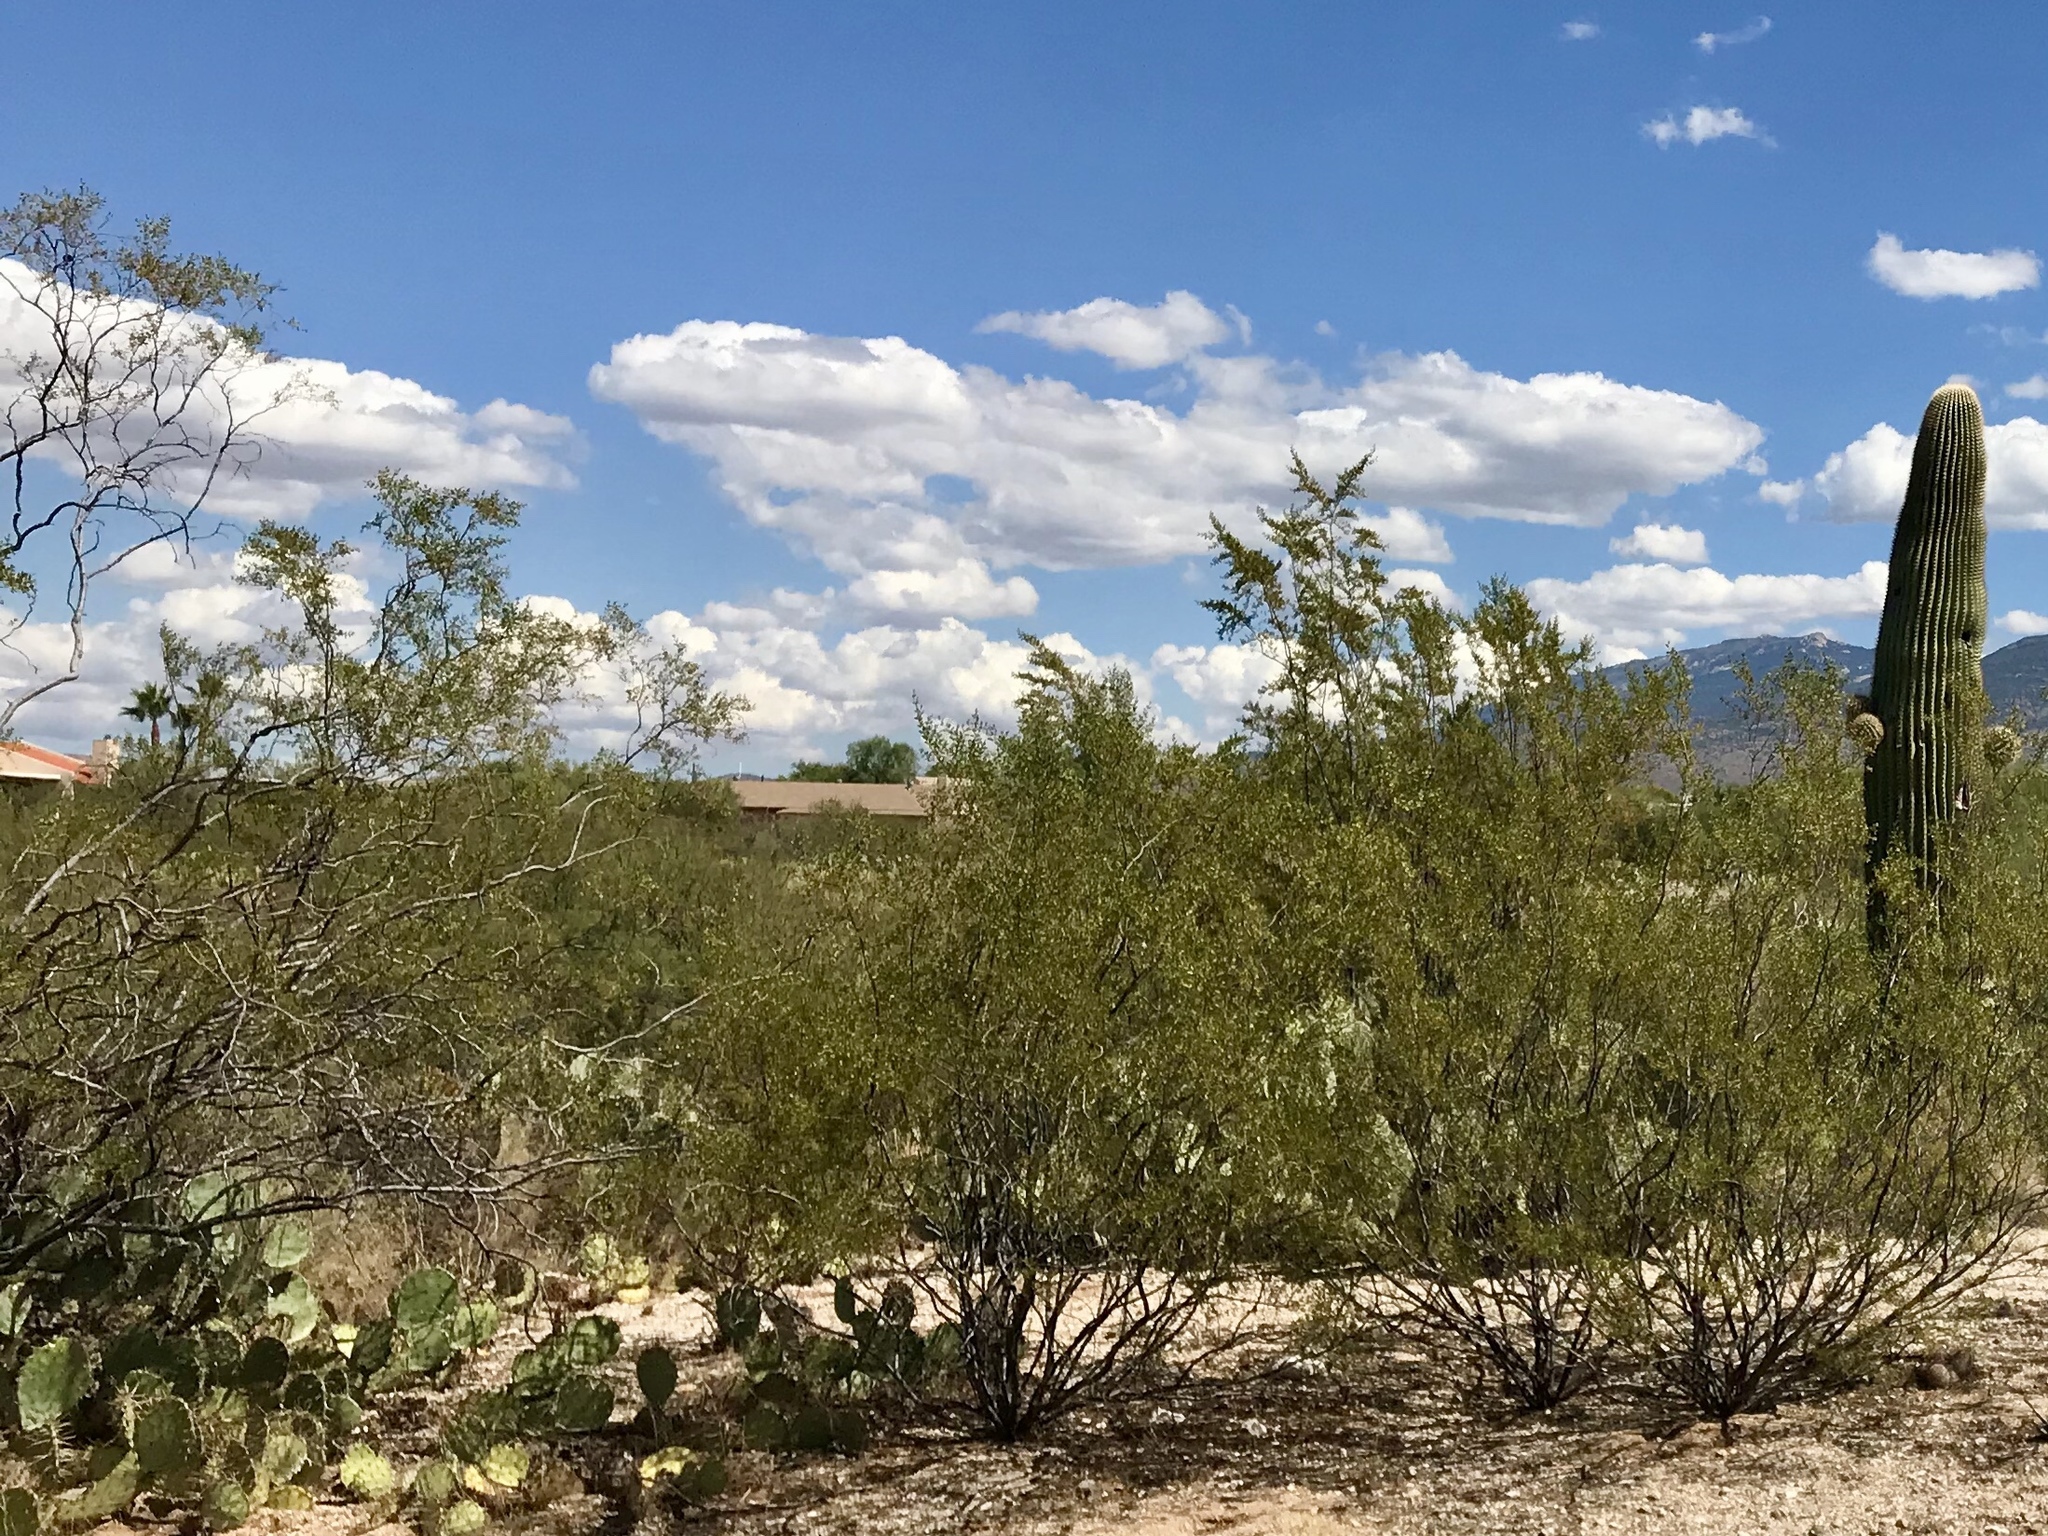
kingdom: Plantae
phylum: Tracheophyta
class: Magnoliopsida
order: Zygophyllales
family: Zygophyllaceae
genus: Larrea
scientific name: Larrea tridentata
